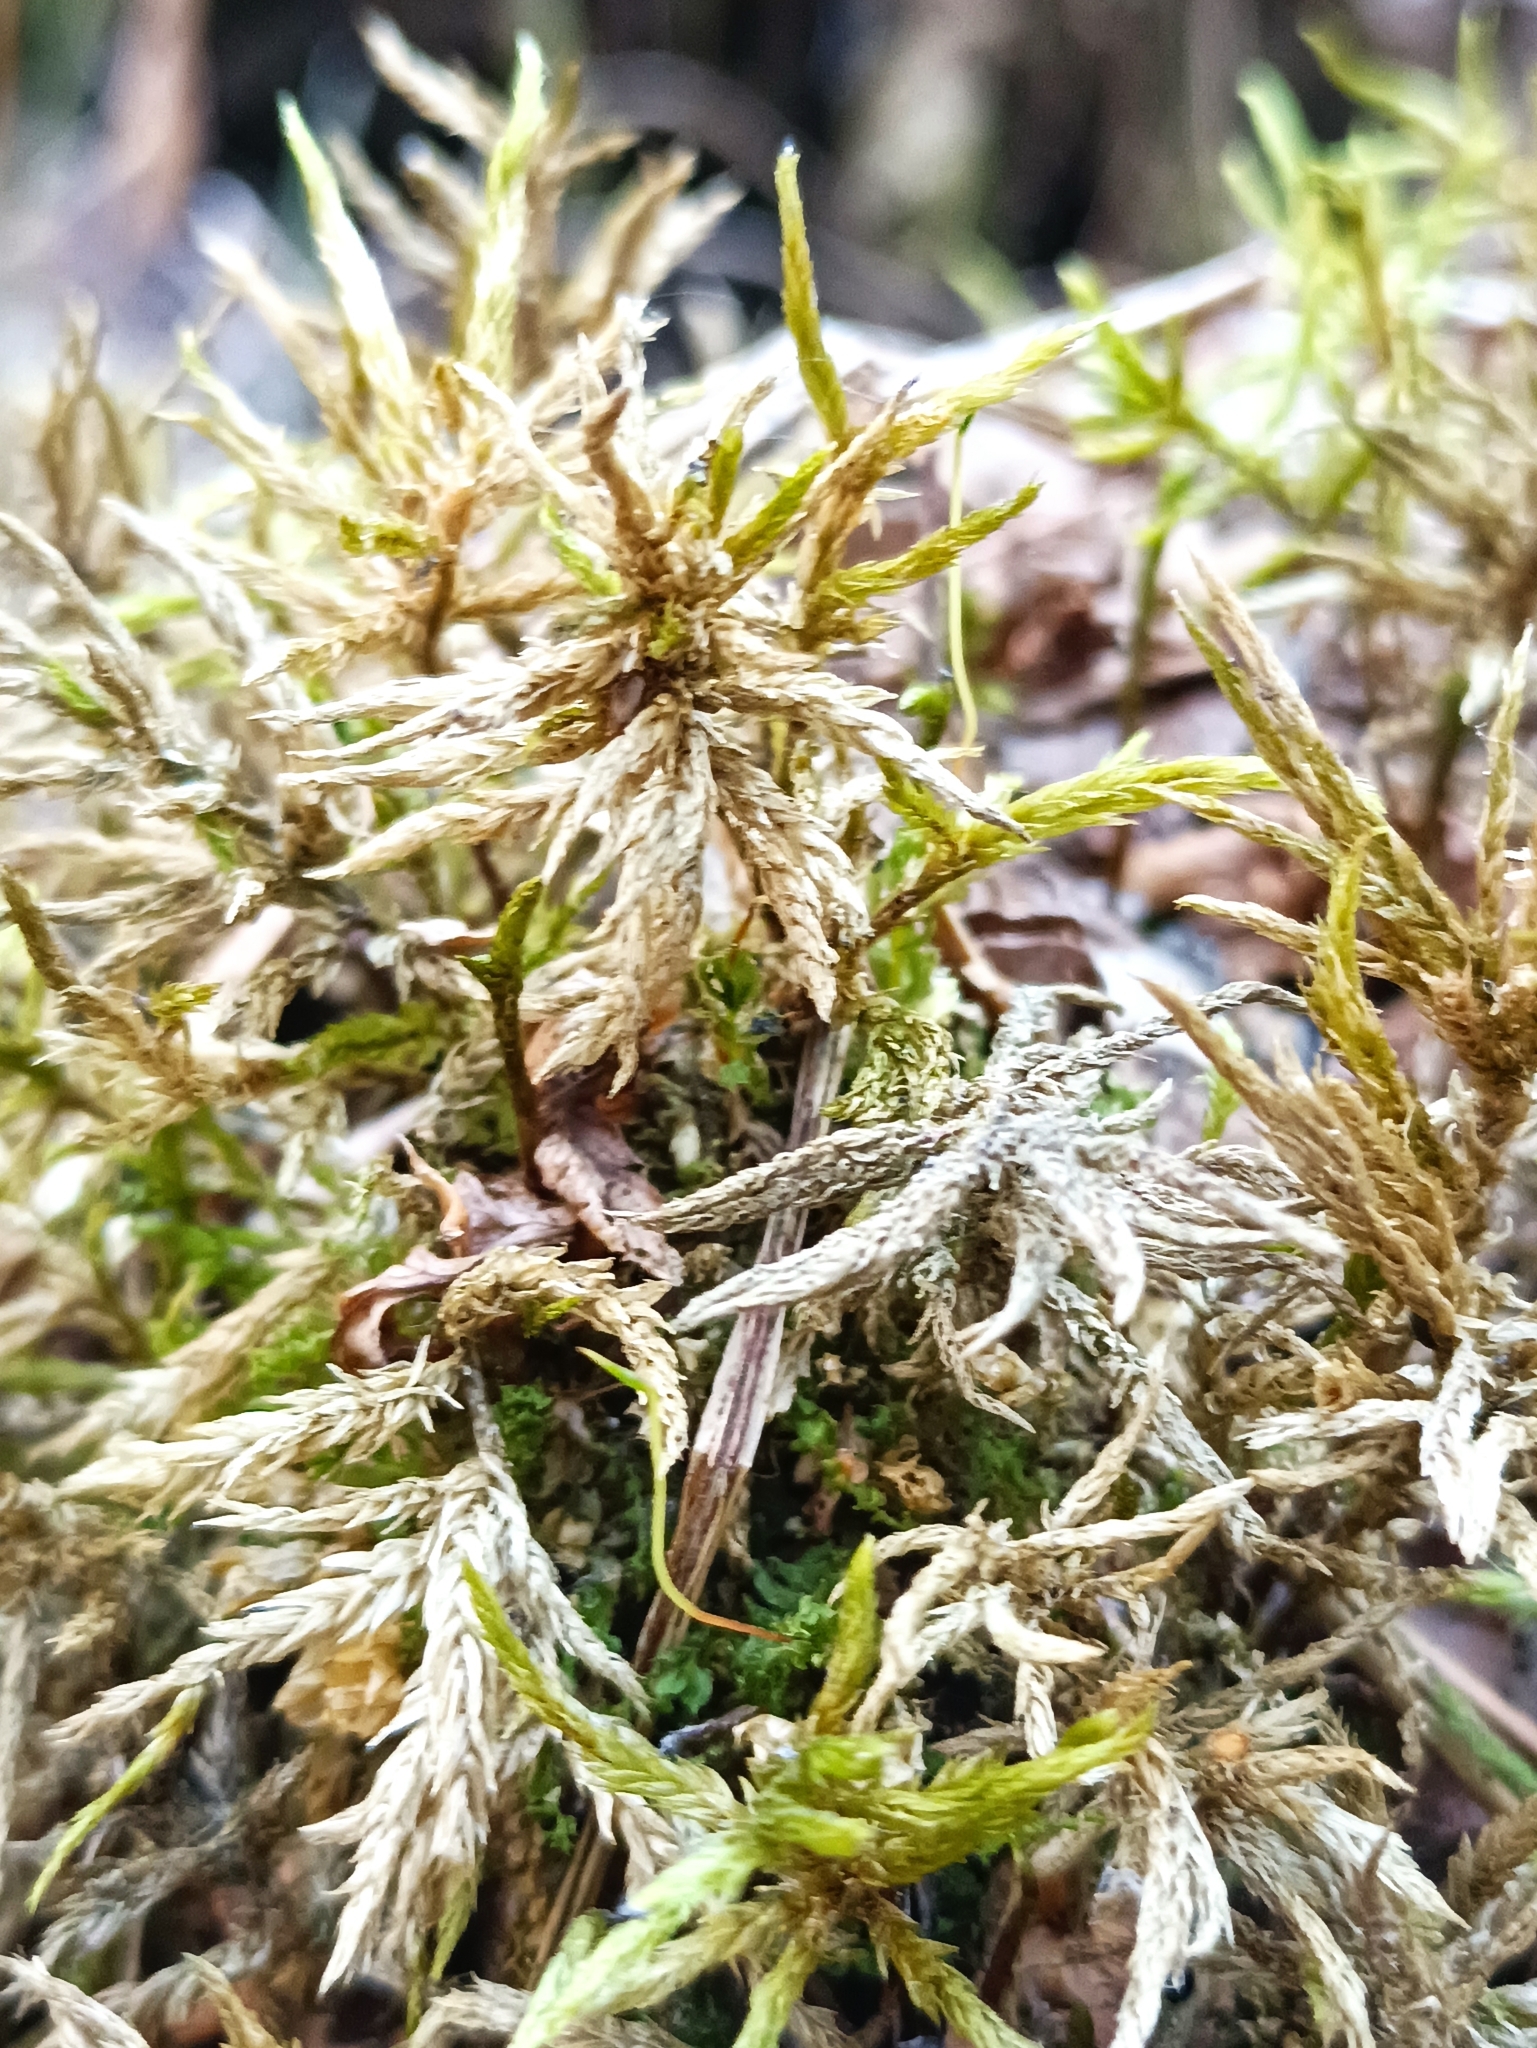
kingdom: Plantae
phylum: Bryophyta
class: Bryopsida
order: Hypnales
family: Climaciaceae
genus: Climacium
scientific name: Climacium dendroides
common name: Northern tree moss
